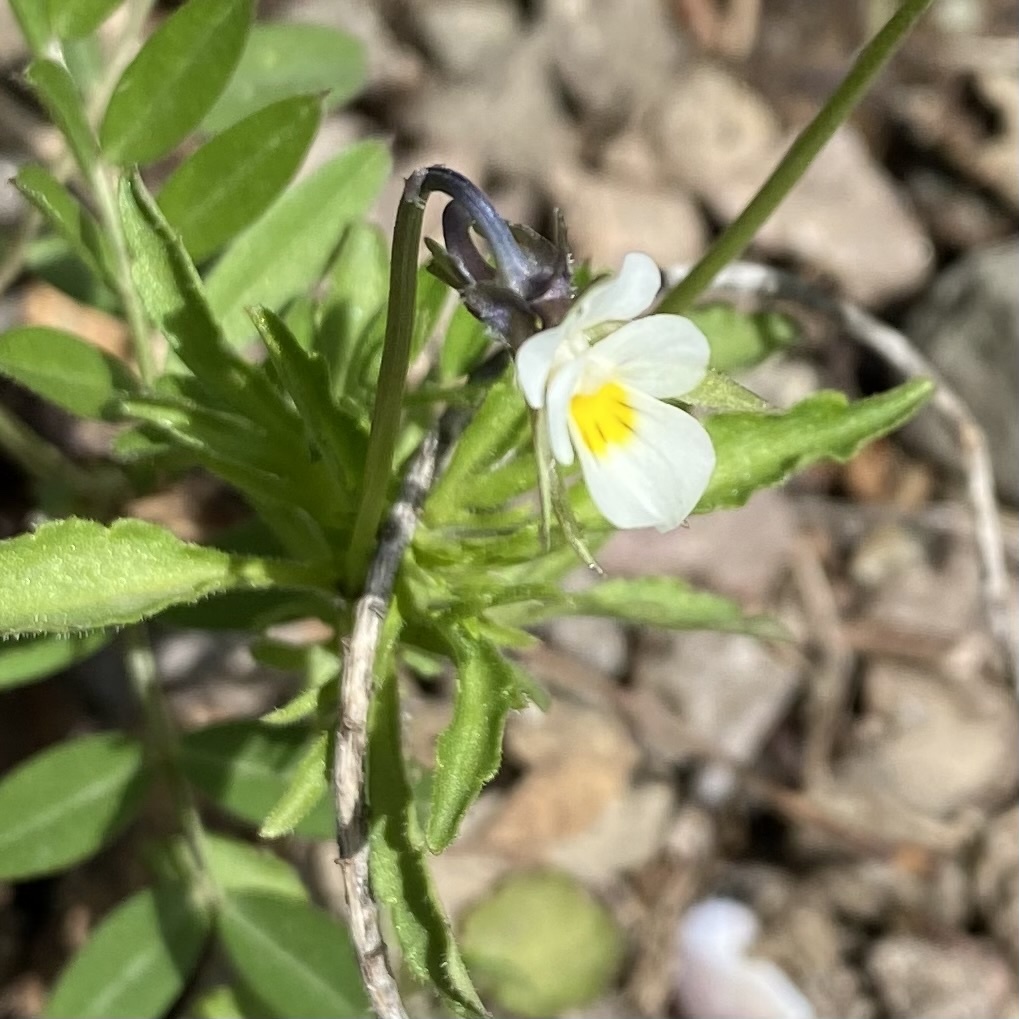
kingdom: Plantae
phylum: Tracheophyta
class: Magnoliopsida
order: Malpighiales
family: Violaceae
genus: Viola
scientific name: Viola arvensis
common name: Field pansy
